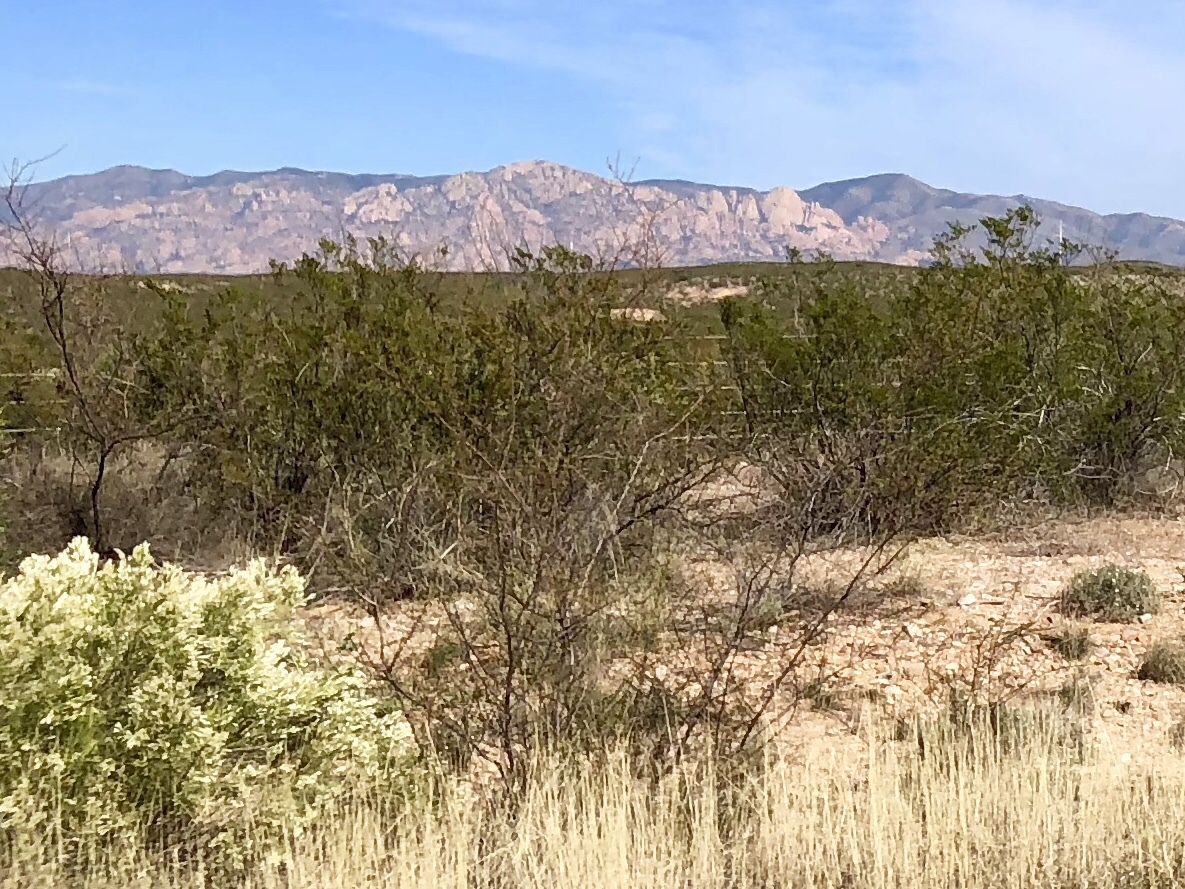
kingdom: Plantae
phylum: Tracheophyta
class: Magnoliopsida
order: Zygophyllales
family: Zygophyllaceae
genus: Larrea
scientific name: Larrea tridentata
